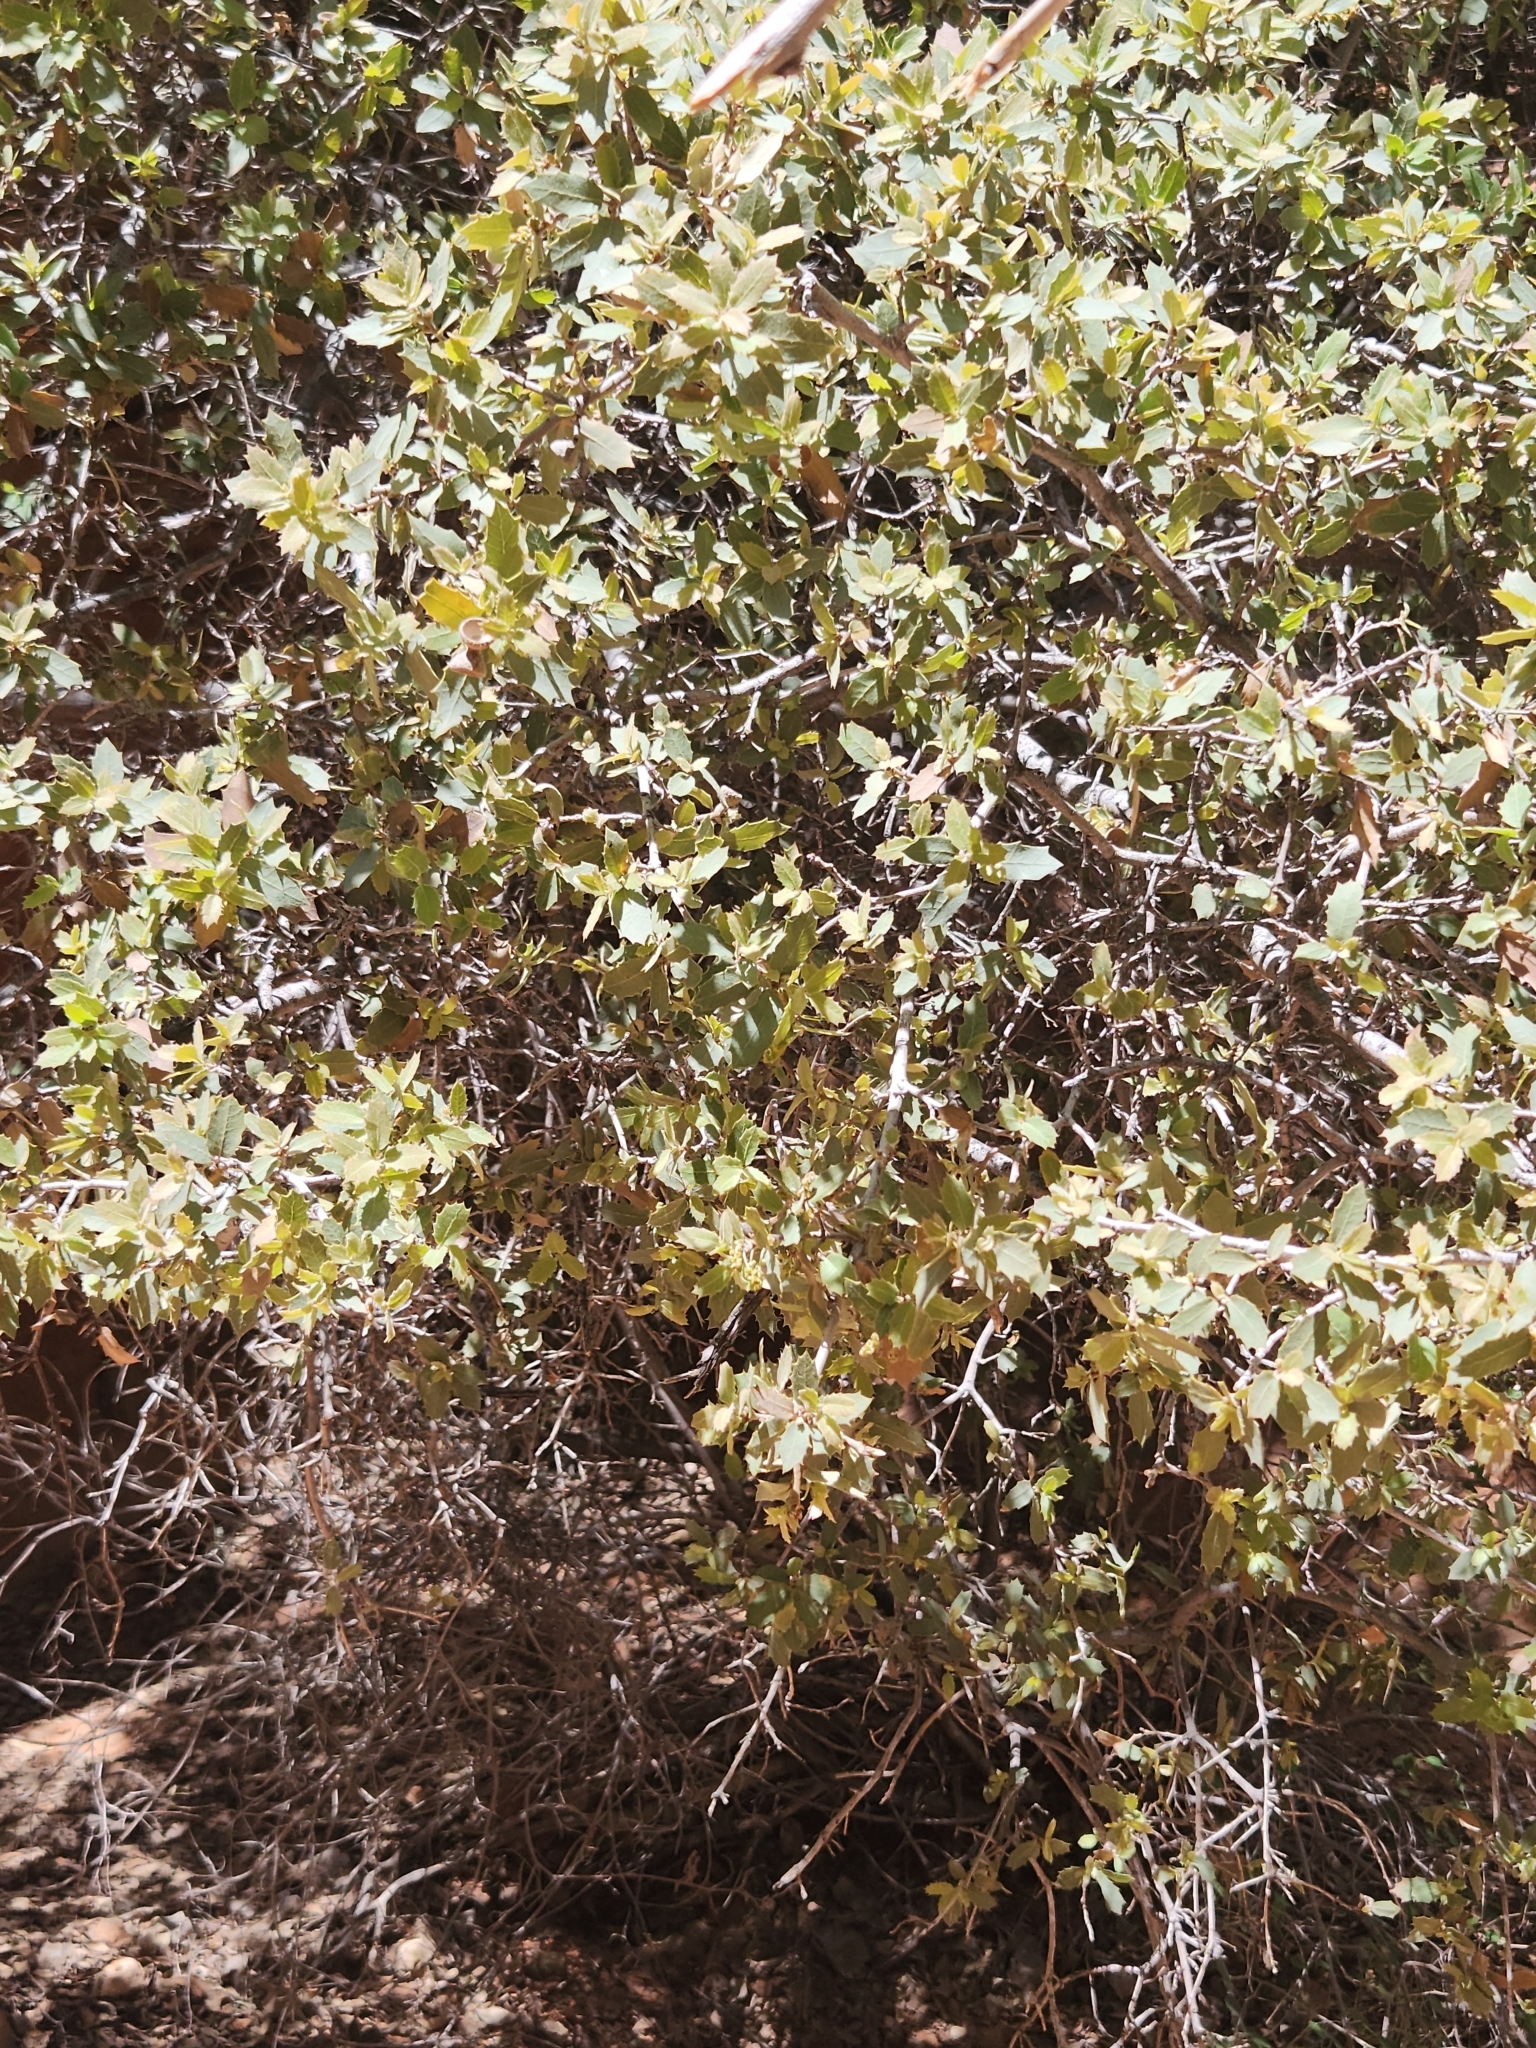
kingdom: Plantae
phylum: Tracheophyta
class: Magnoliopsida
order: Fagales
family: Fagaceae
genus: Quercus
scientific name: Quercus turbinella
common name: Sonoran scrub oak
